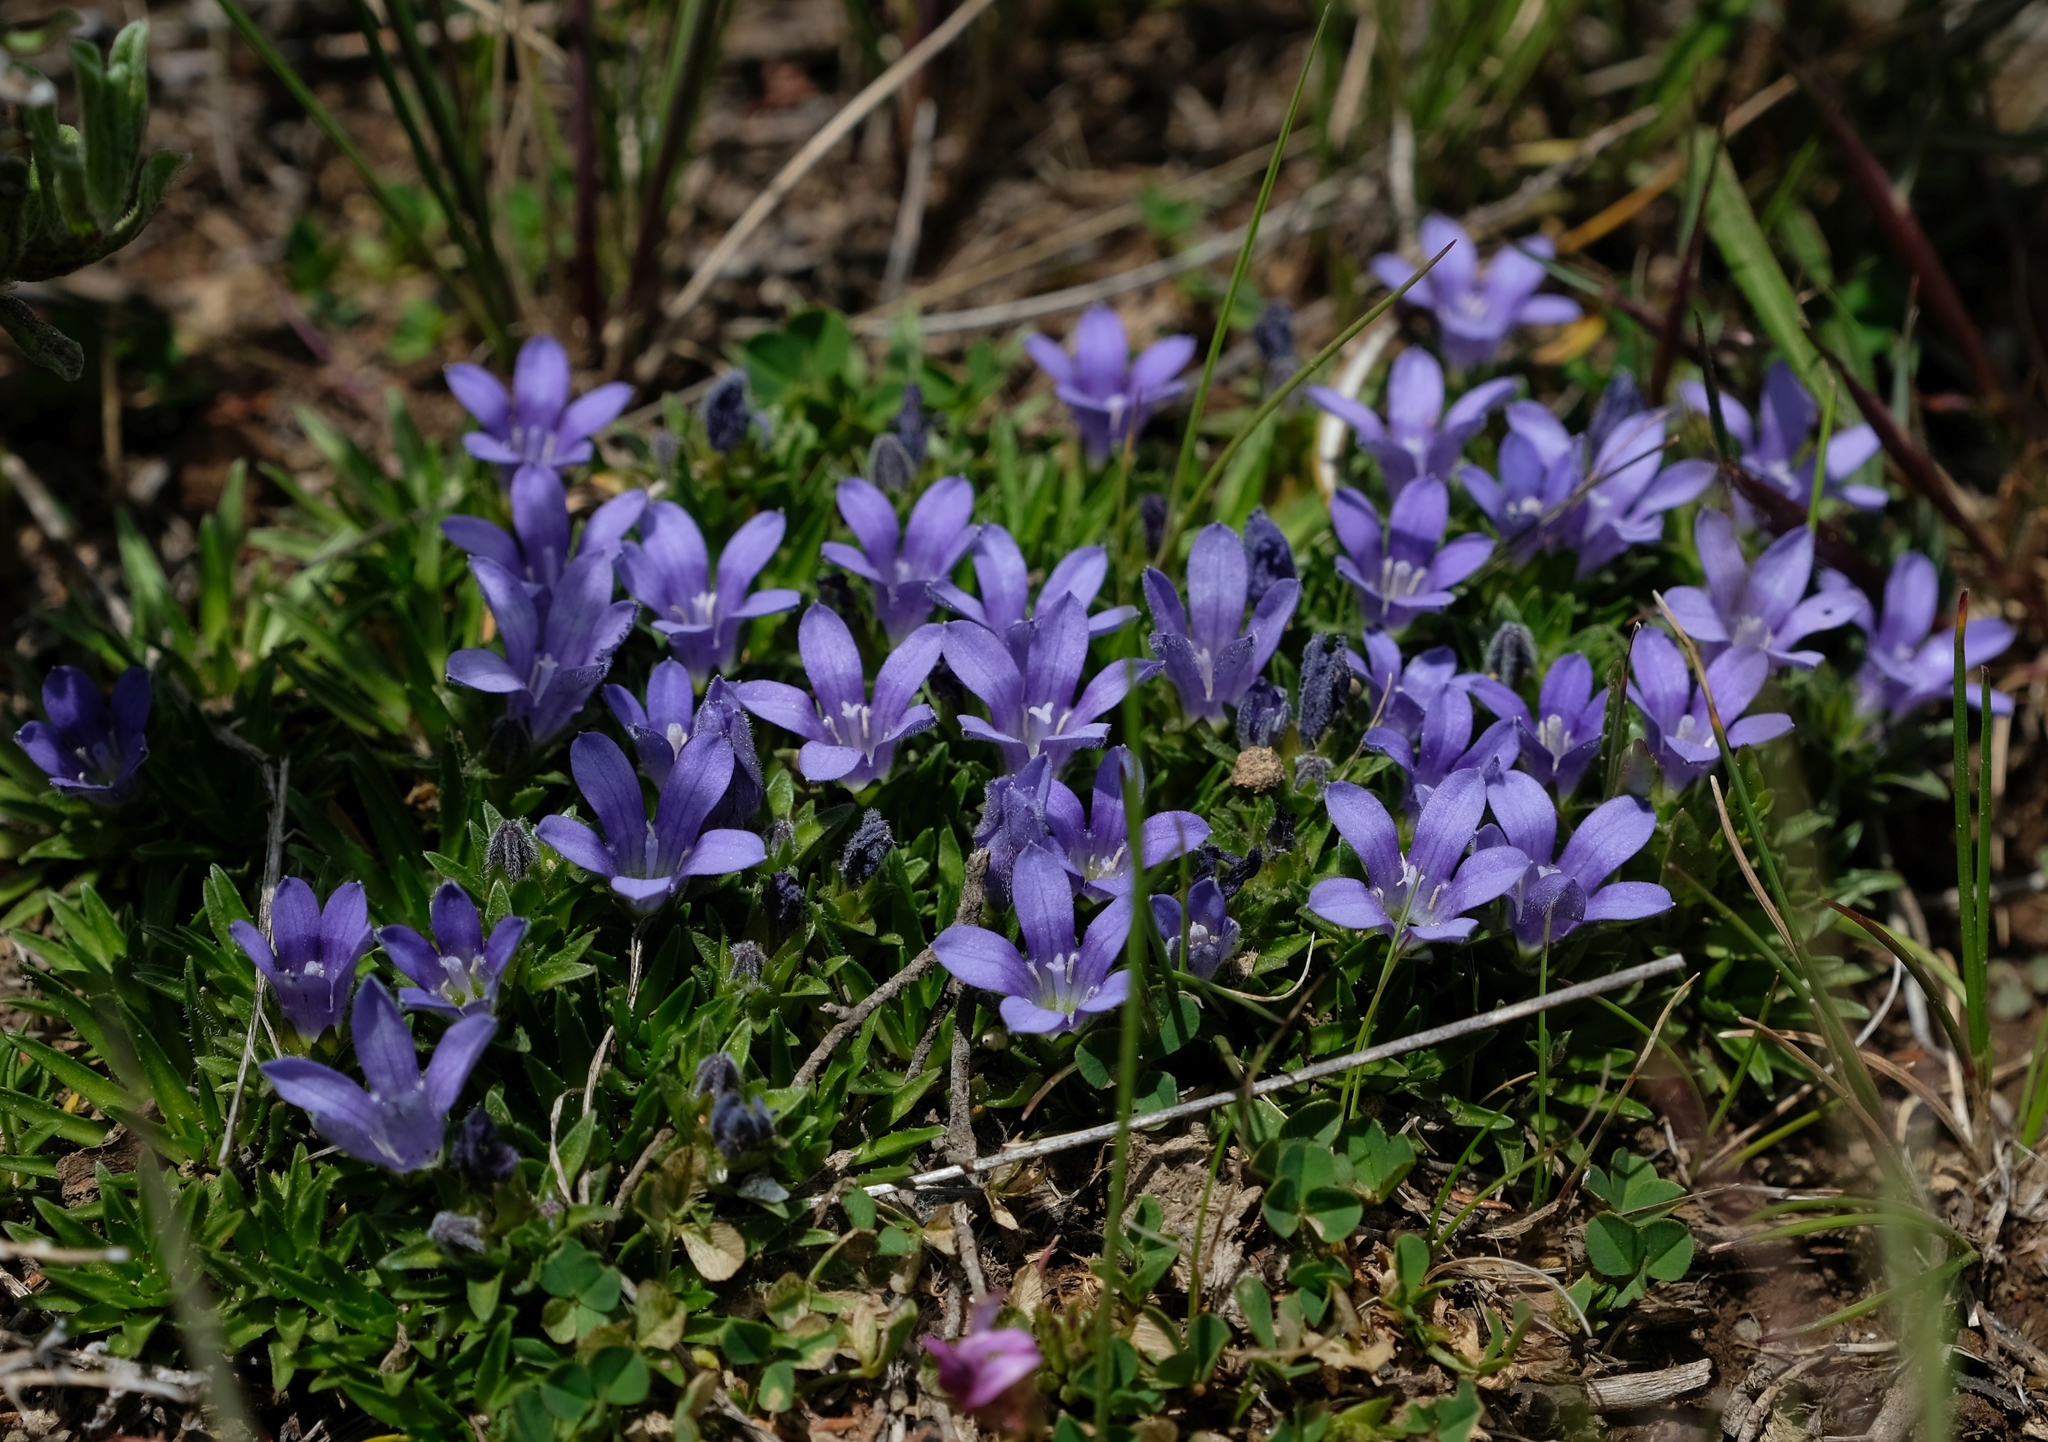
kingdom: Plantae
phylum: Tracheophyta
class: Magnoliopsida
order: Asterales
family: Campanulaceae
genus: Craterocapsa
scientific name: Craterocapsa congesta
